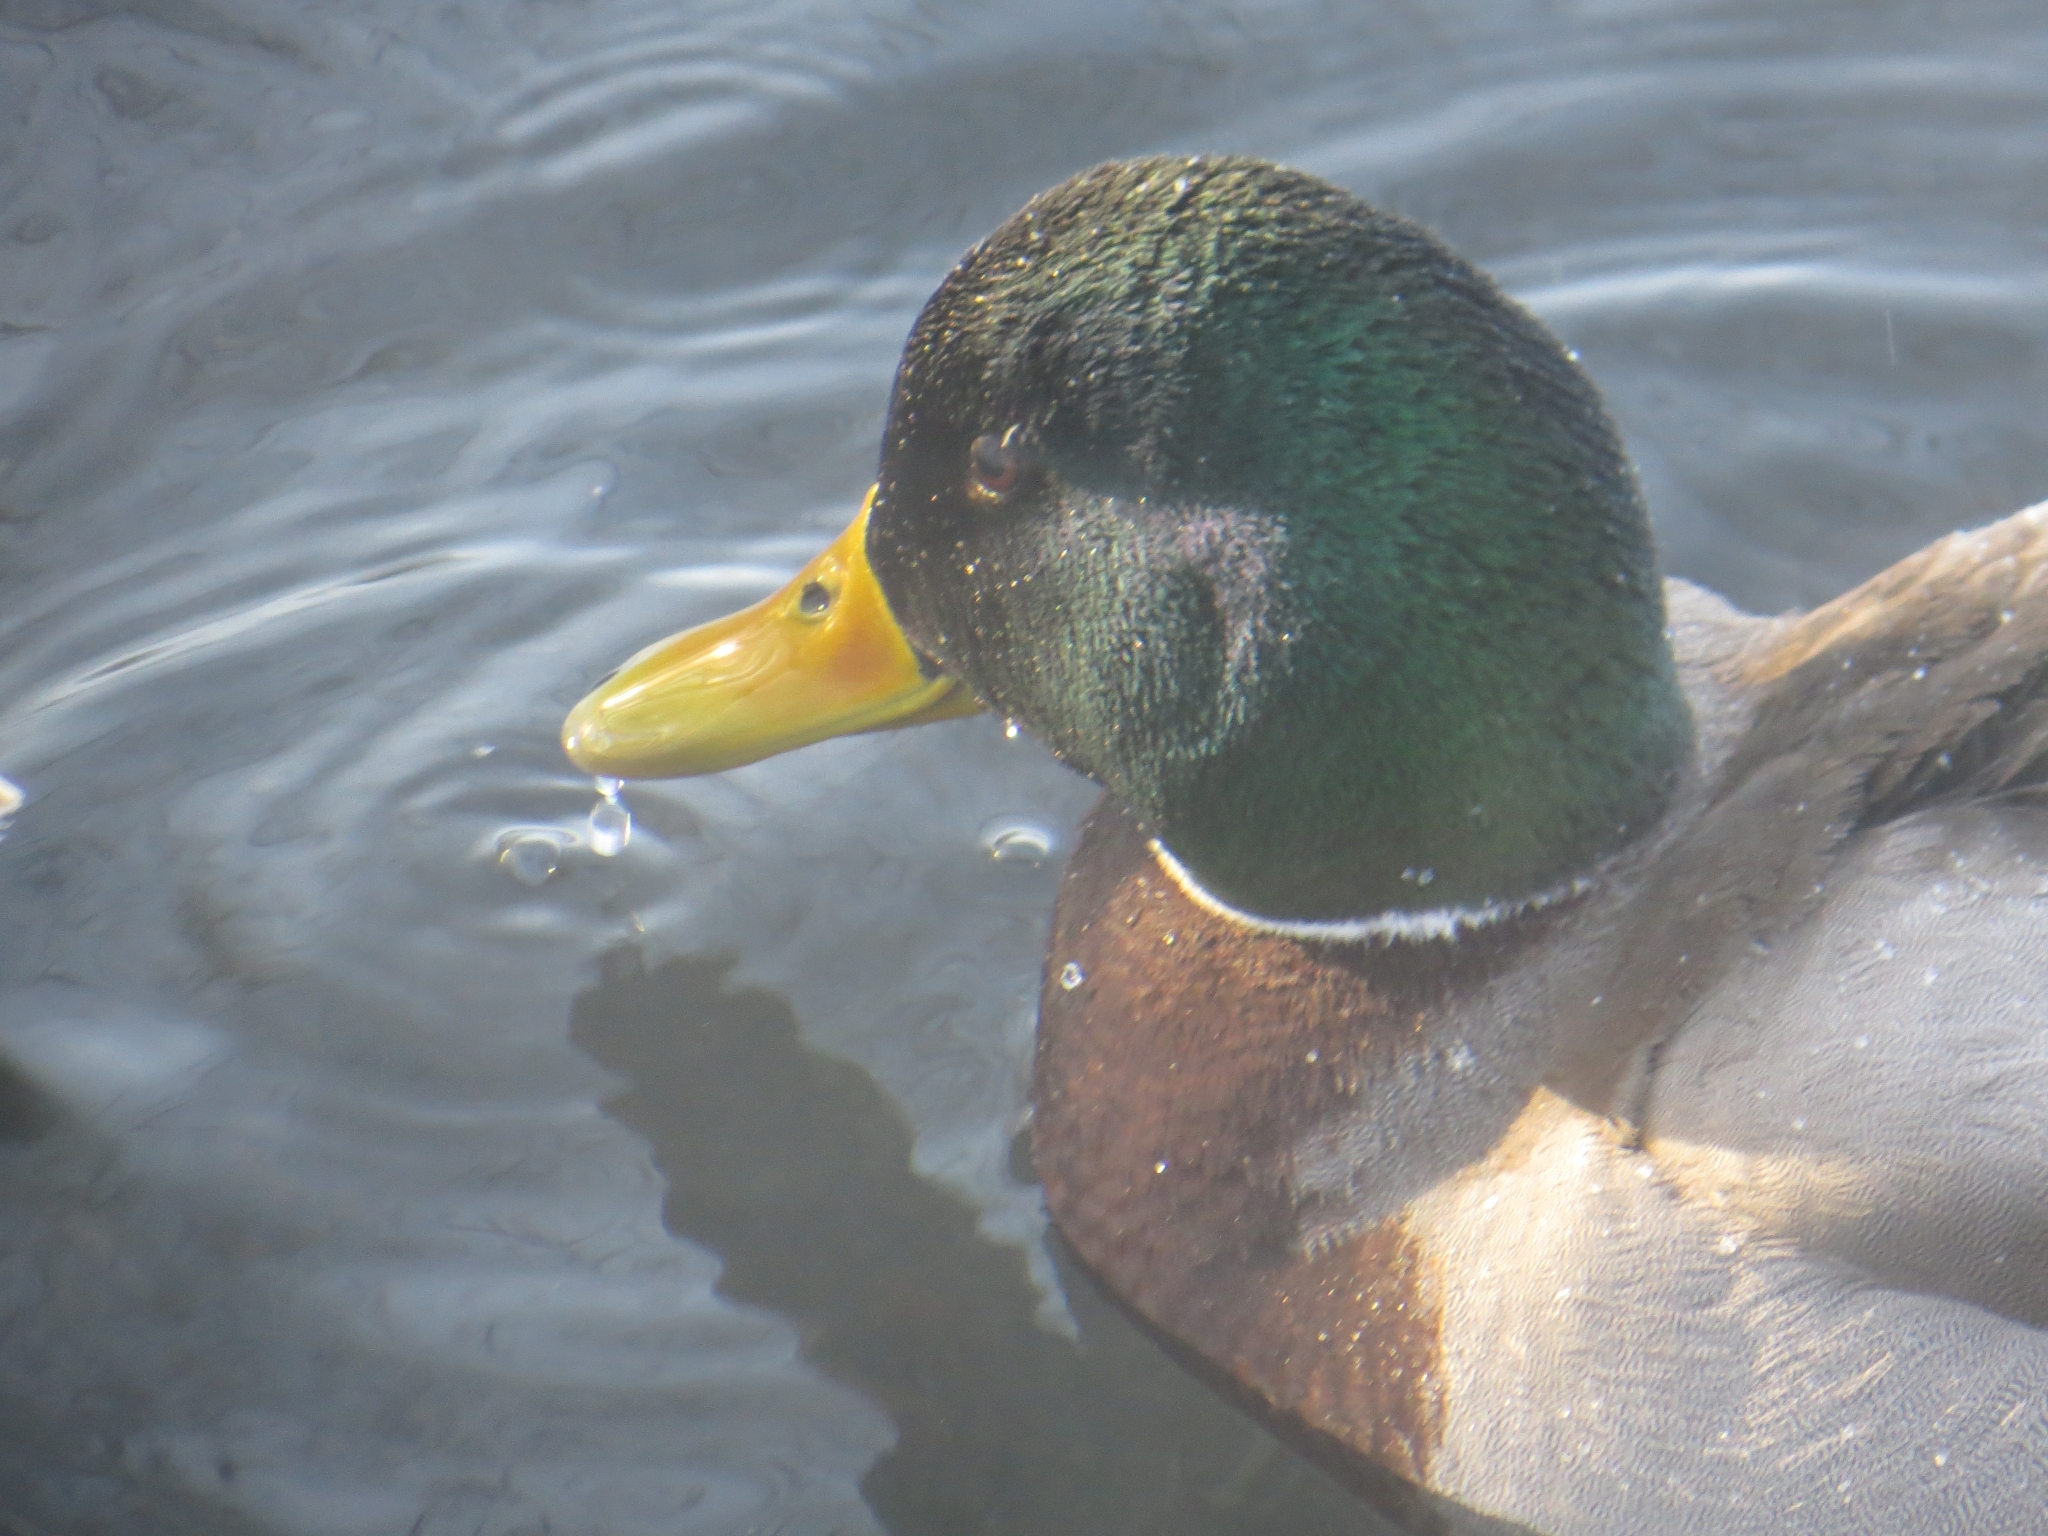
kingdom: Animalia
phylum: Chordata
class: Aves
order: Anseriformes
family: Anatidae
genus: Anas
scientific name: Anas platyrhynchos
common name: Mallard
